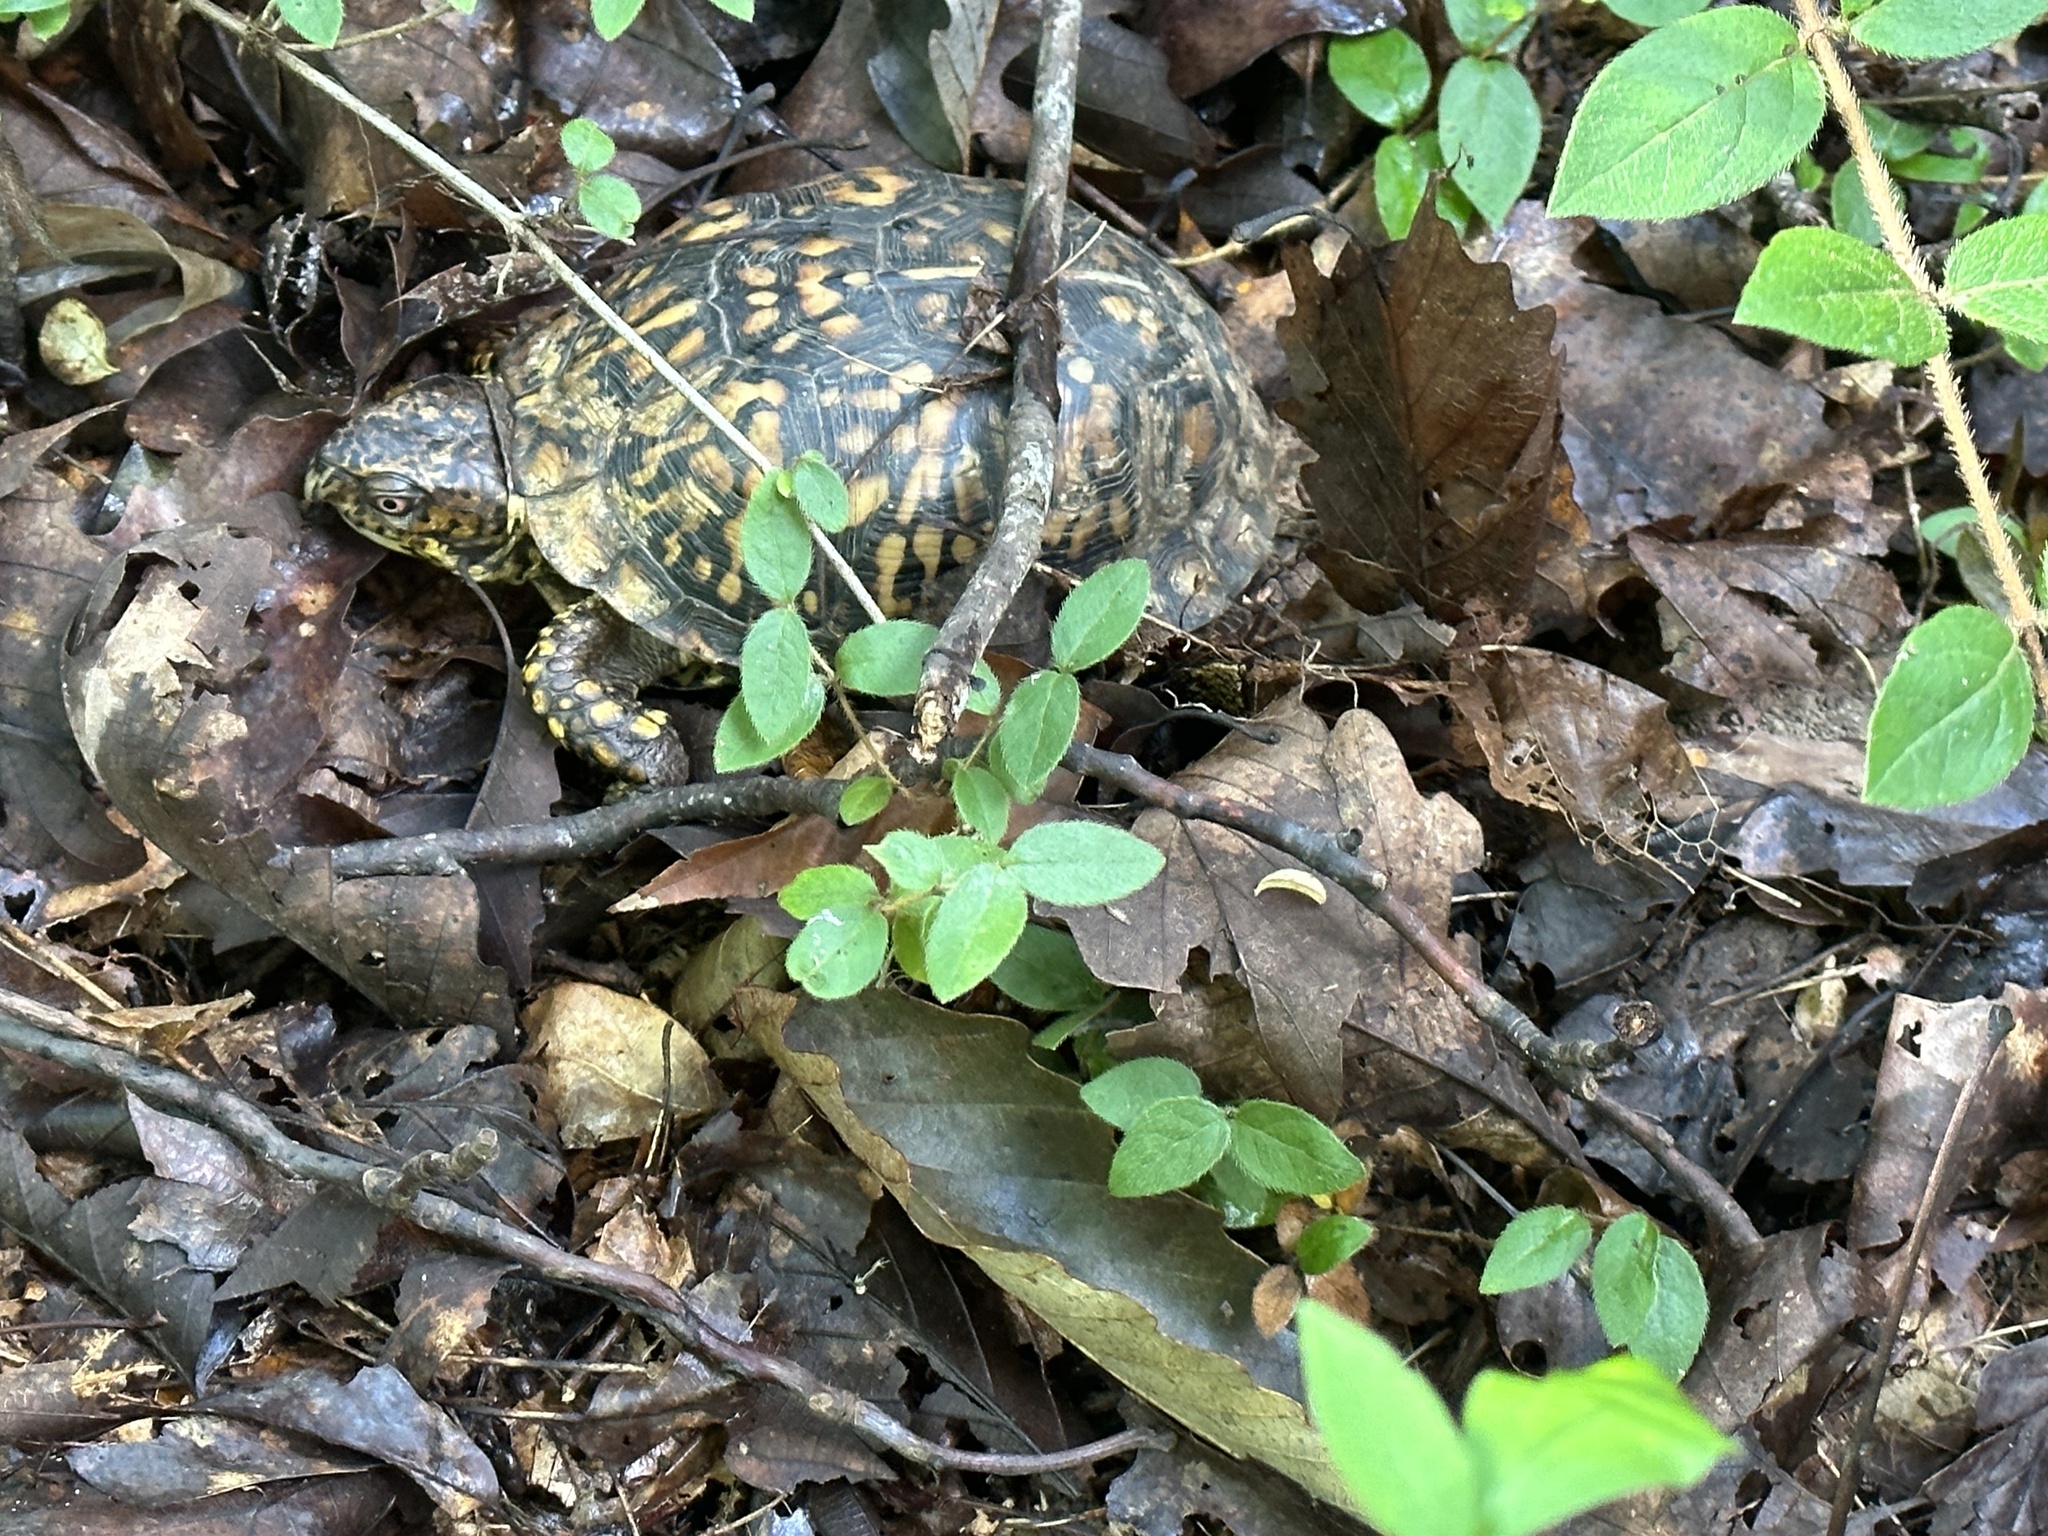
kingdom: Animalia
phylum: Chordata
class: Testudines
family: Emydidae
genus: Terrapene
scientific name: Terrapene carolina
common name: Common box turtle
